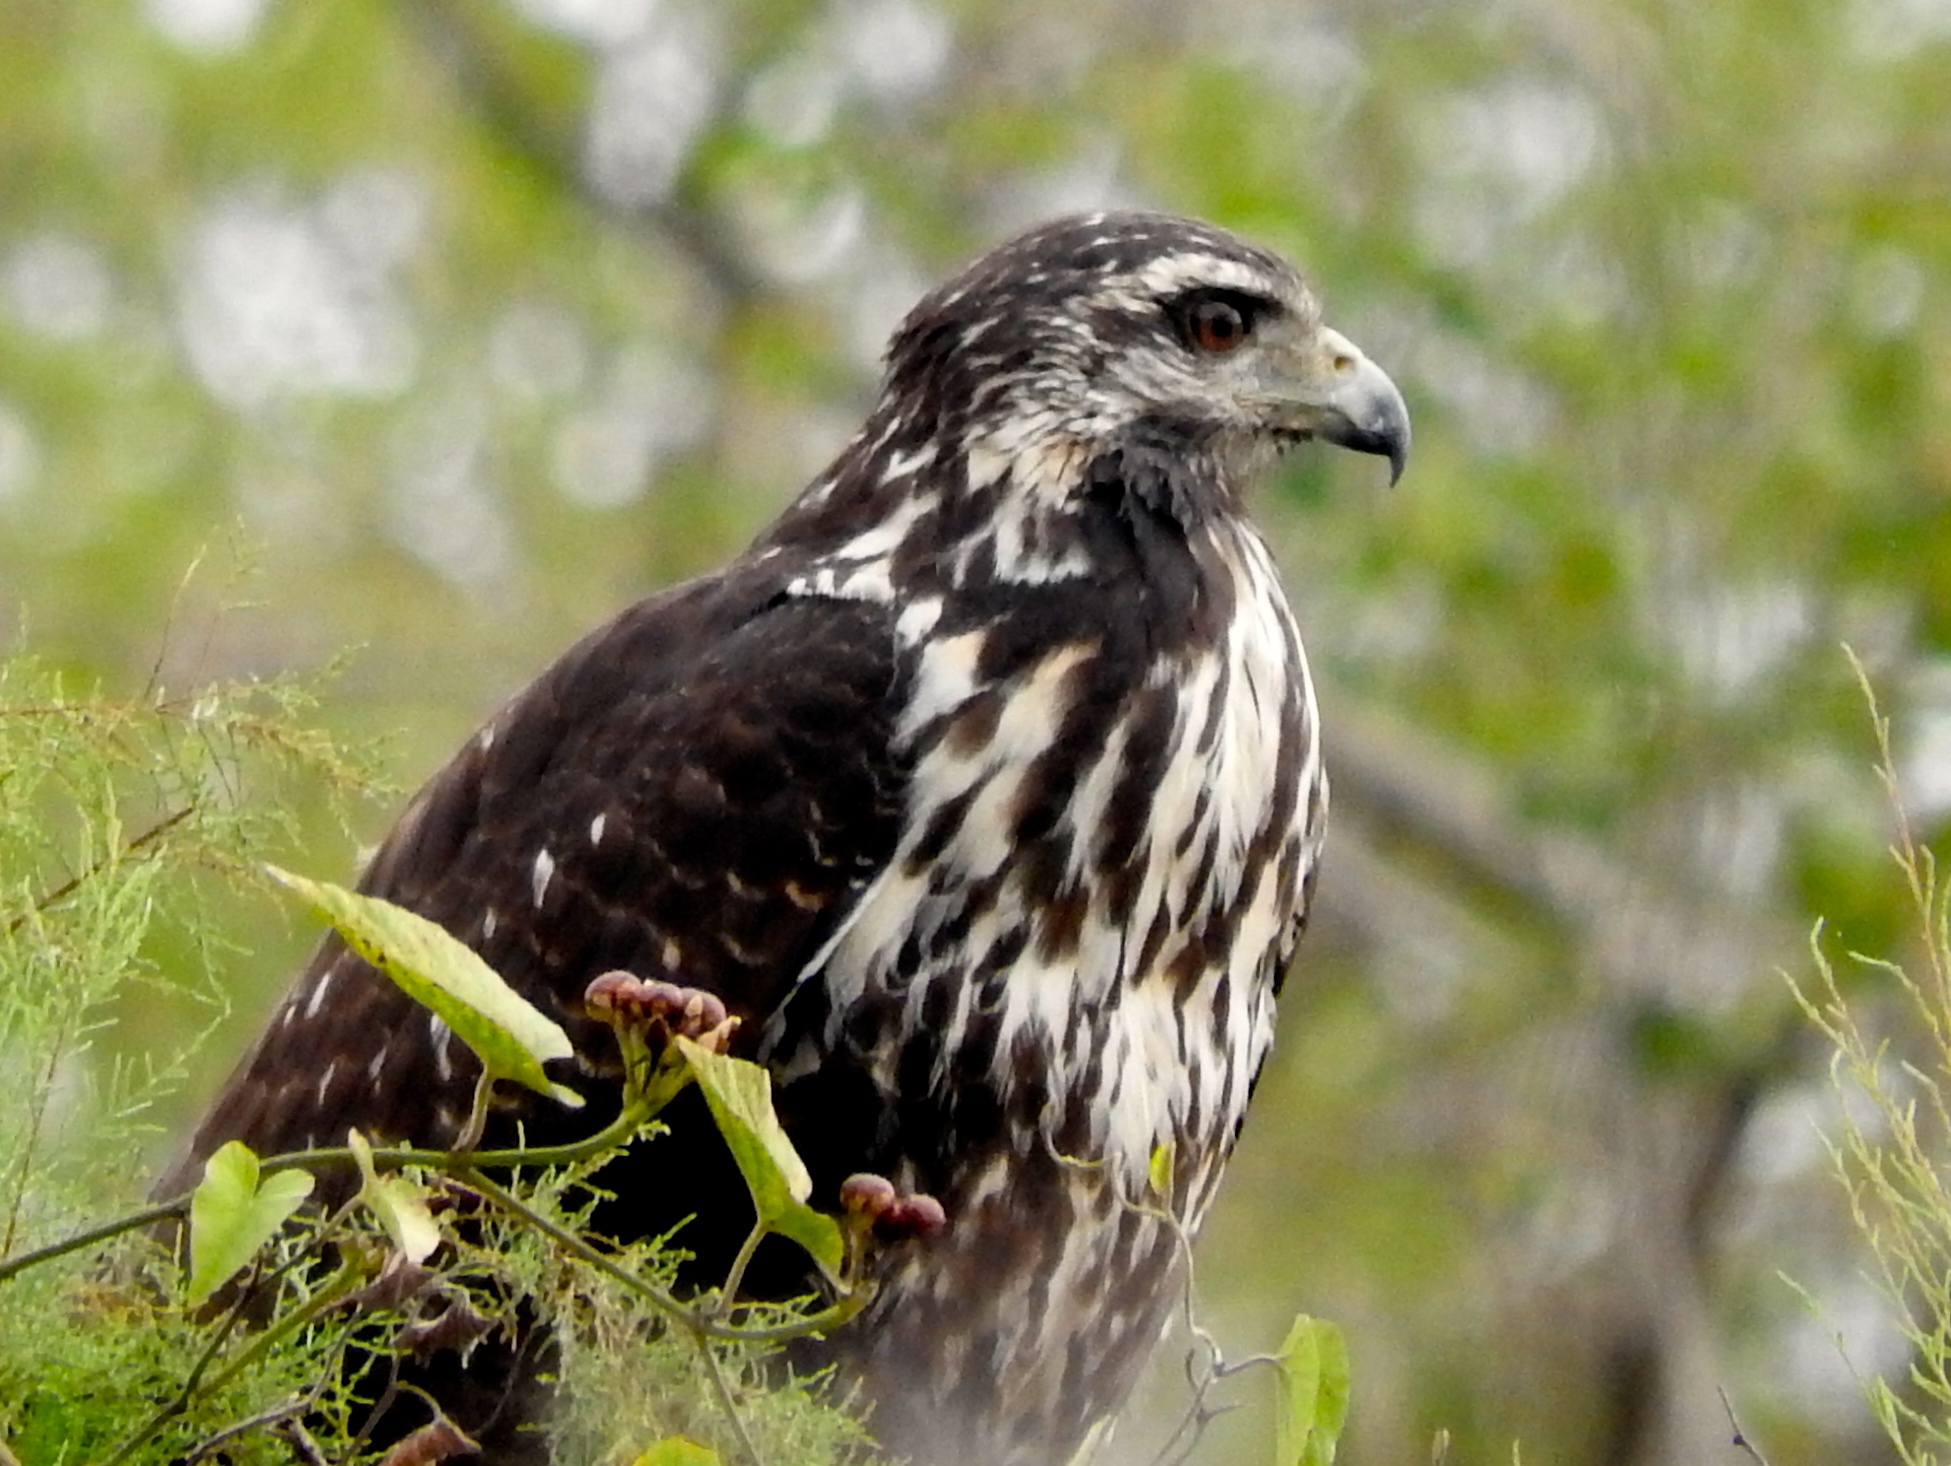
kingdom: Animalia
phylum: Chordata
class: Aves
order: Accipitriformes
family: Accipitridae
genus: Buteogallus
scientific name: Buteogallus anthracinus
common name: Common black hawk
